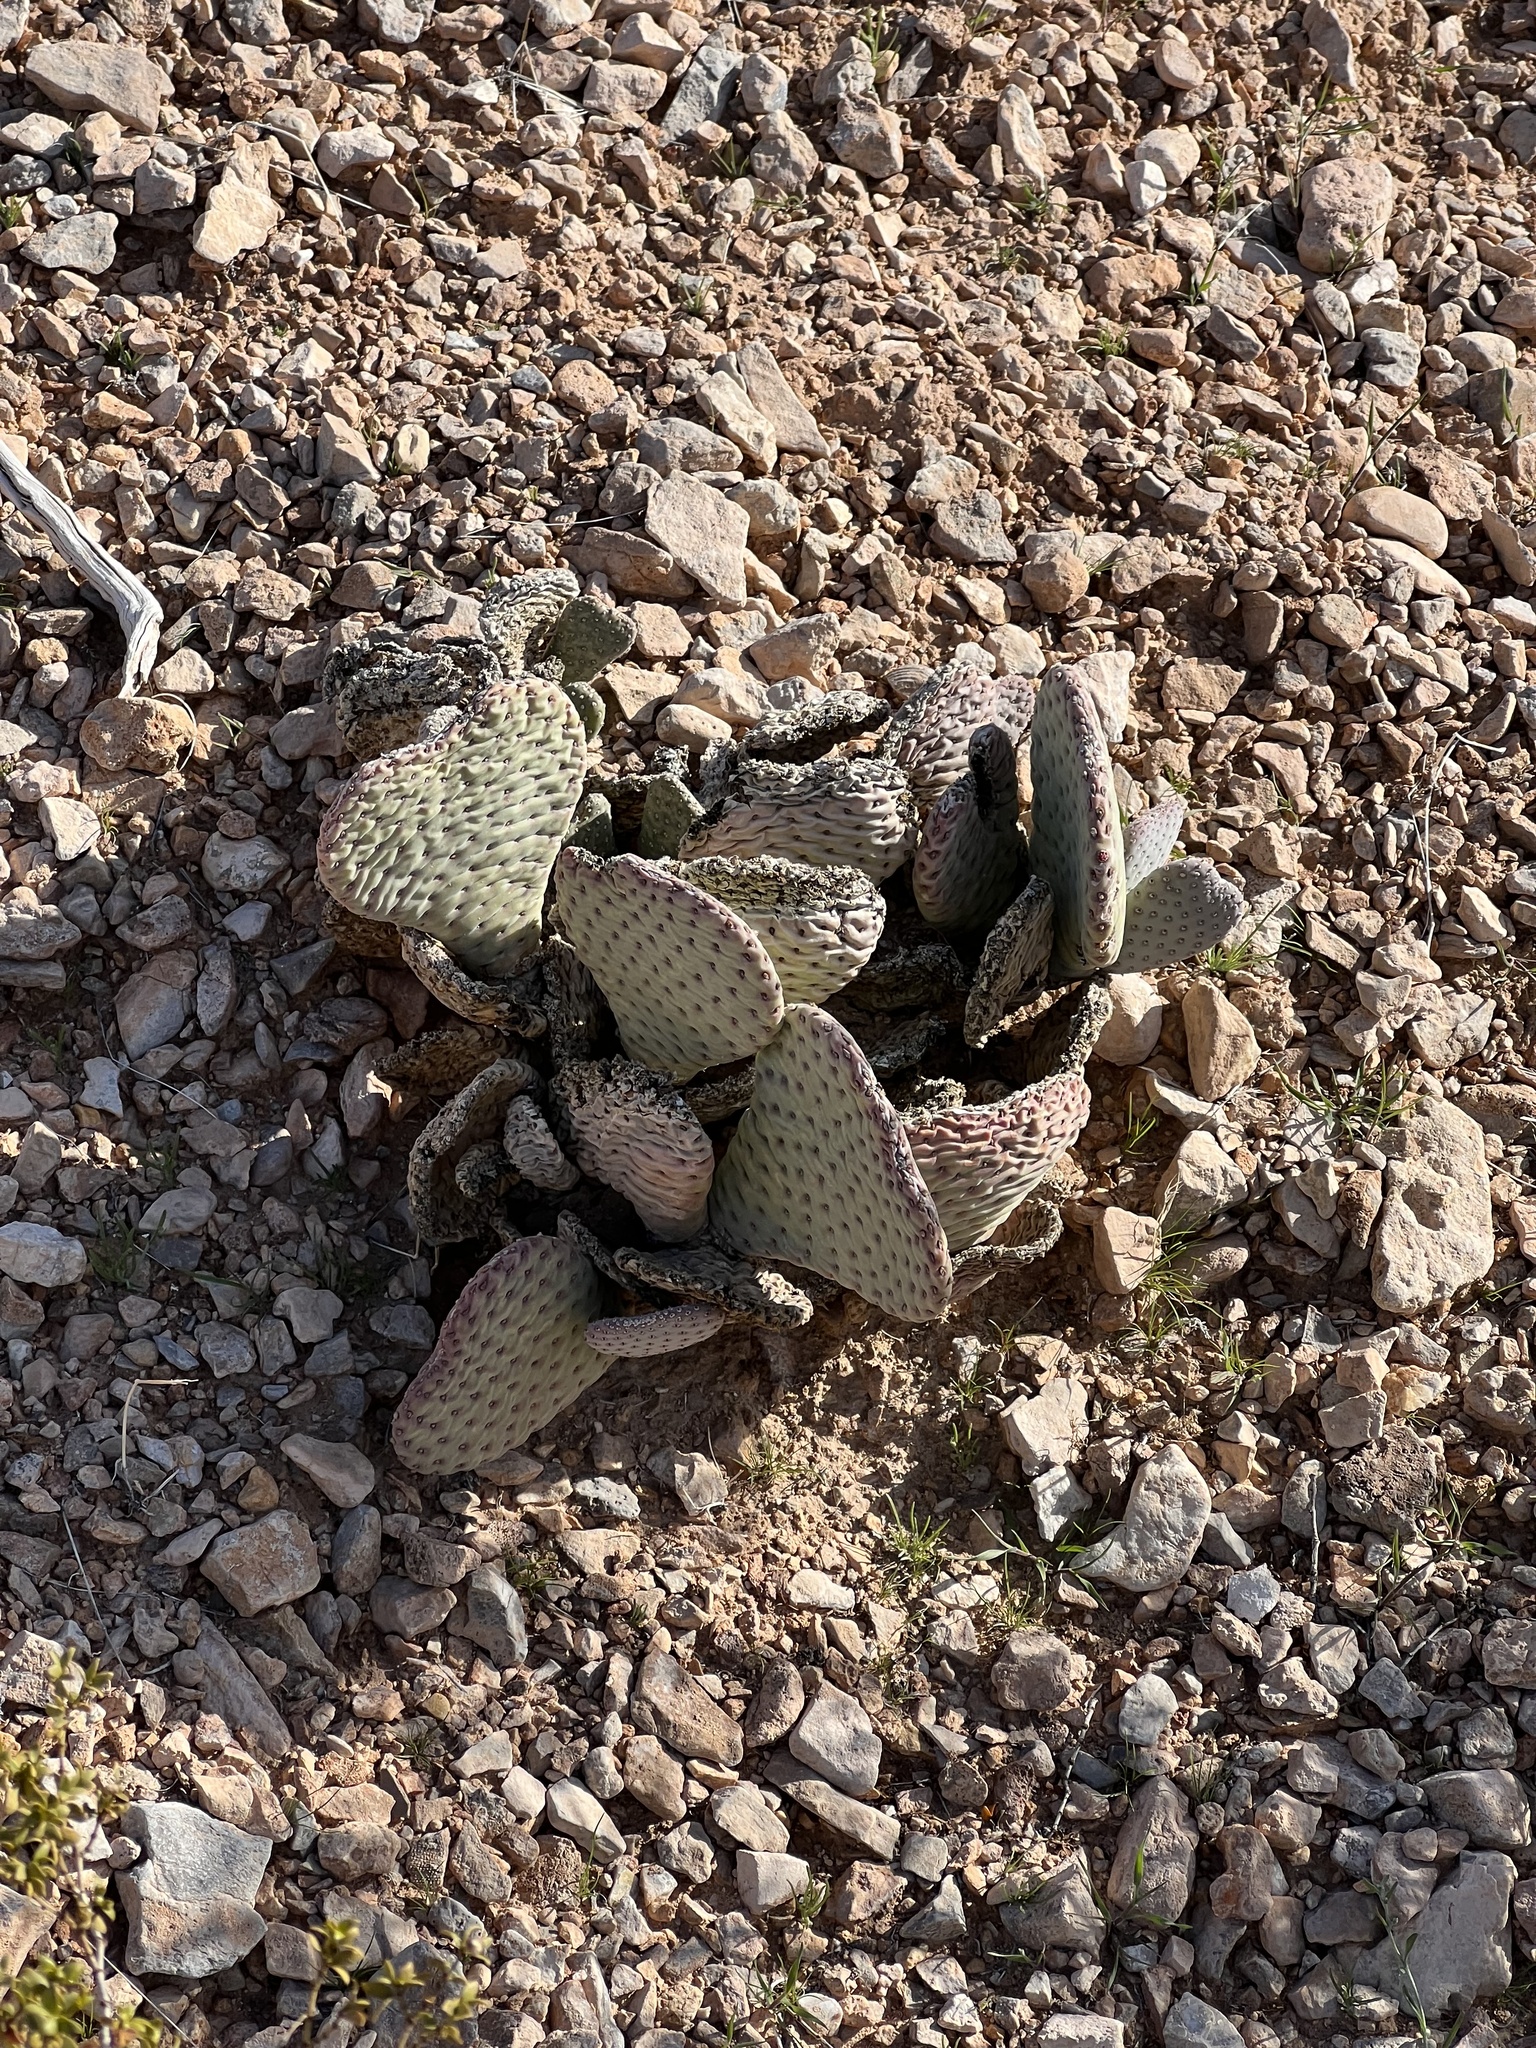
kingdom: Plantae
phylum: Tracheophyta
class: Magnoliopsida
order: Caryophyllales
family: Cactaceae
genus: Opuntia
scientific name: Opuntia basilaris
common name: Beavertail prickly-pear
